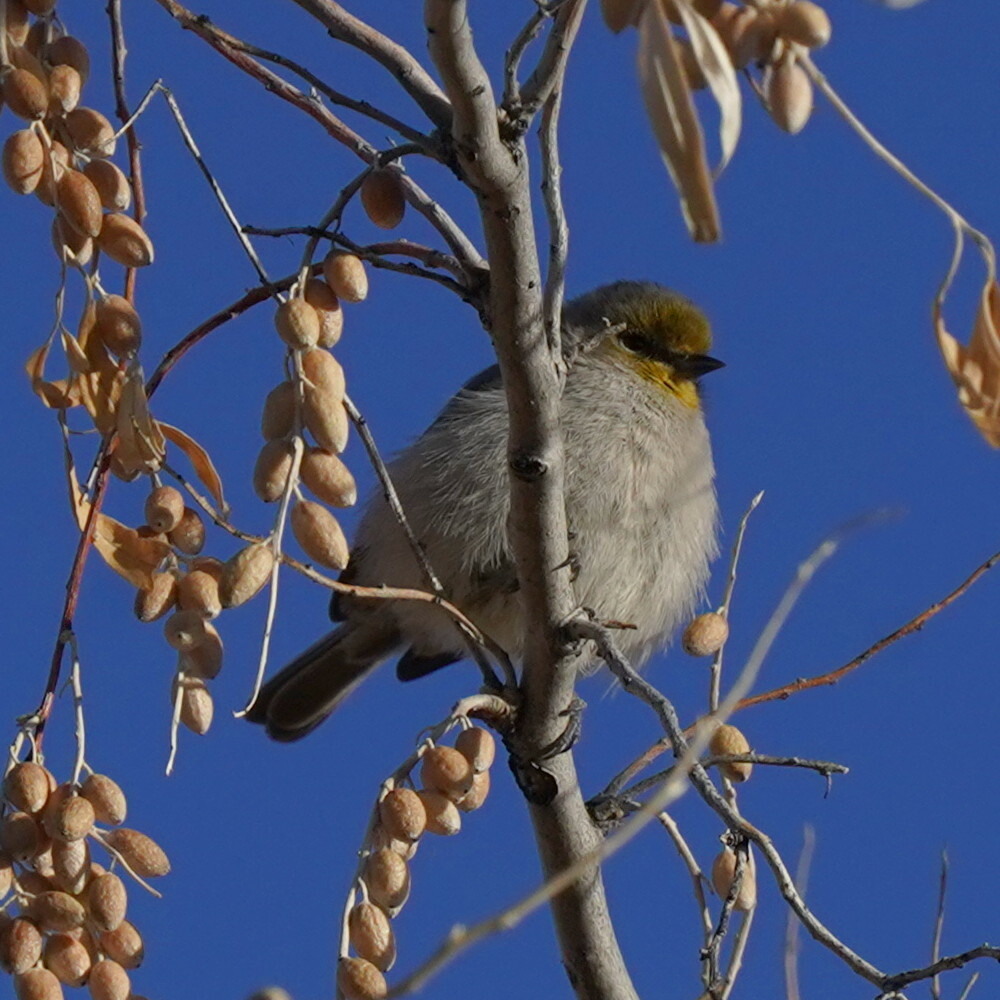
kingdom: Animalia
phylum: Chordata
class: Aves
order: Passeriformes
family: Remizidae
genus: Auriparus
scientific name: Auriparus flaviceps
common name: Verdin
